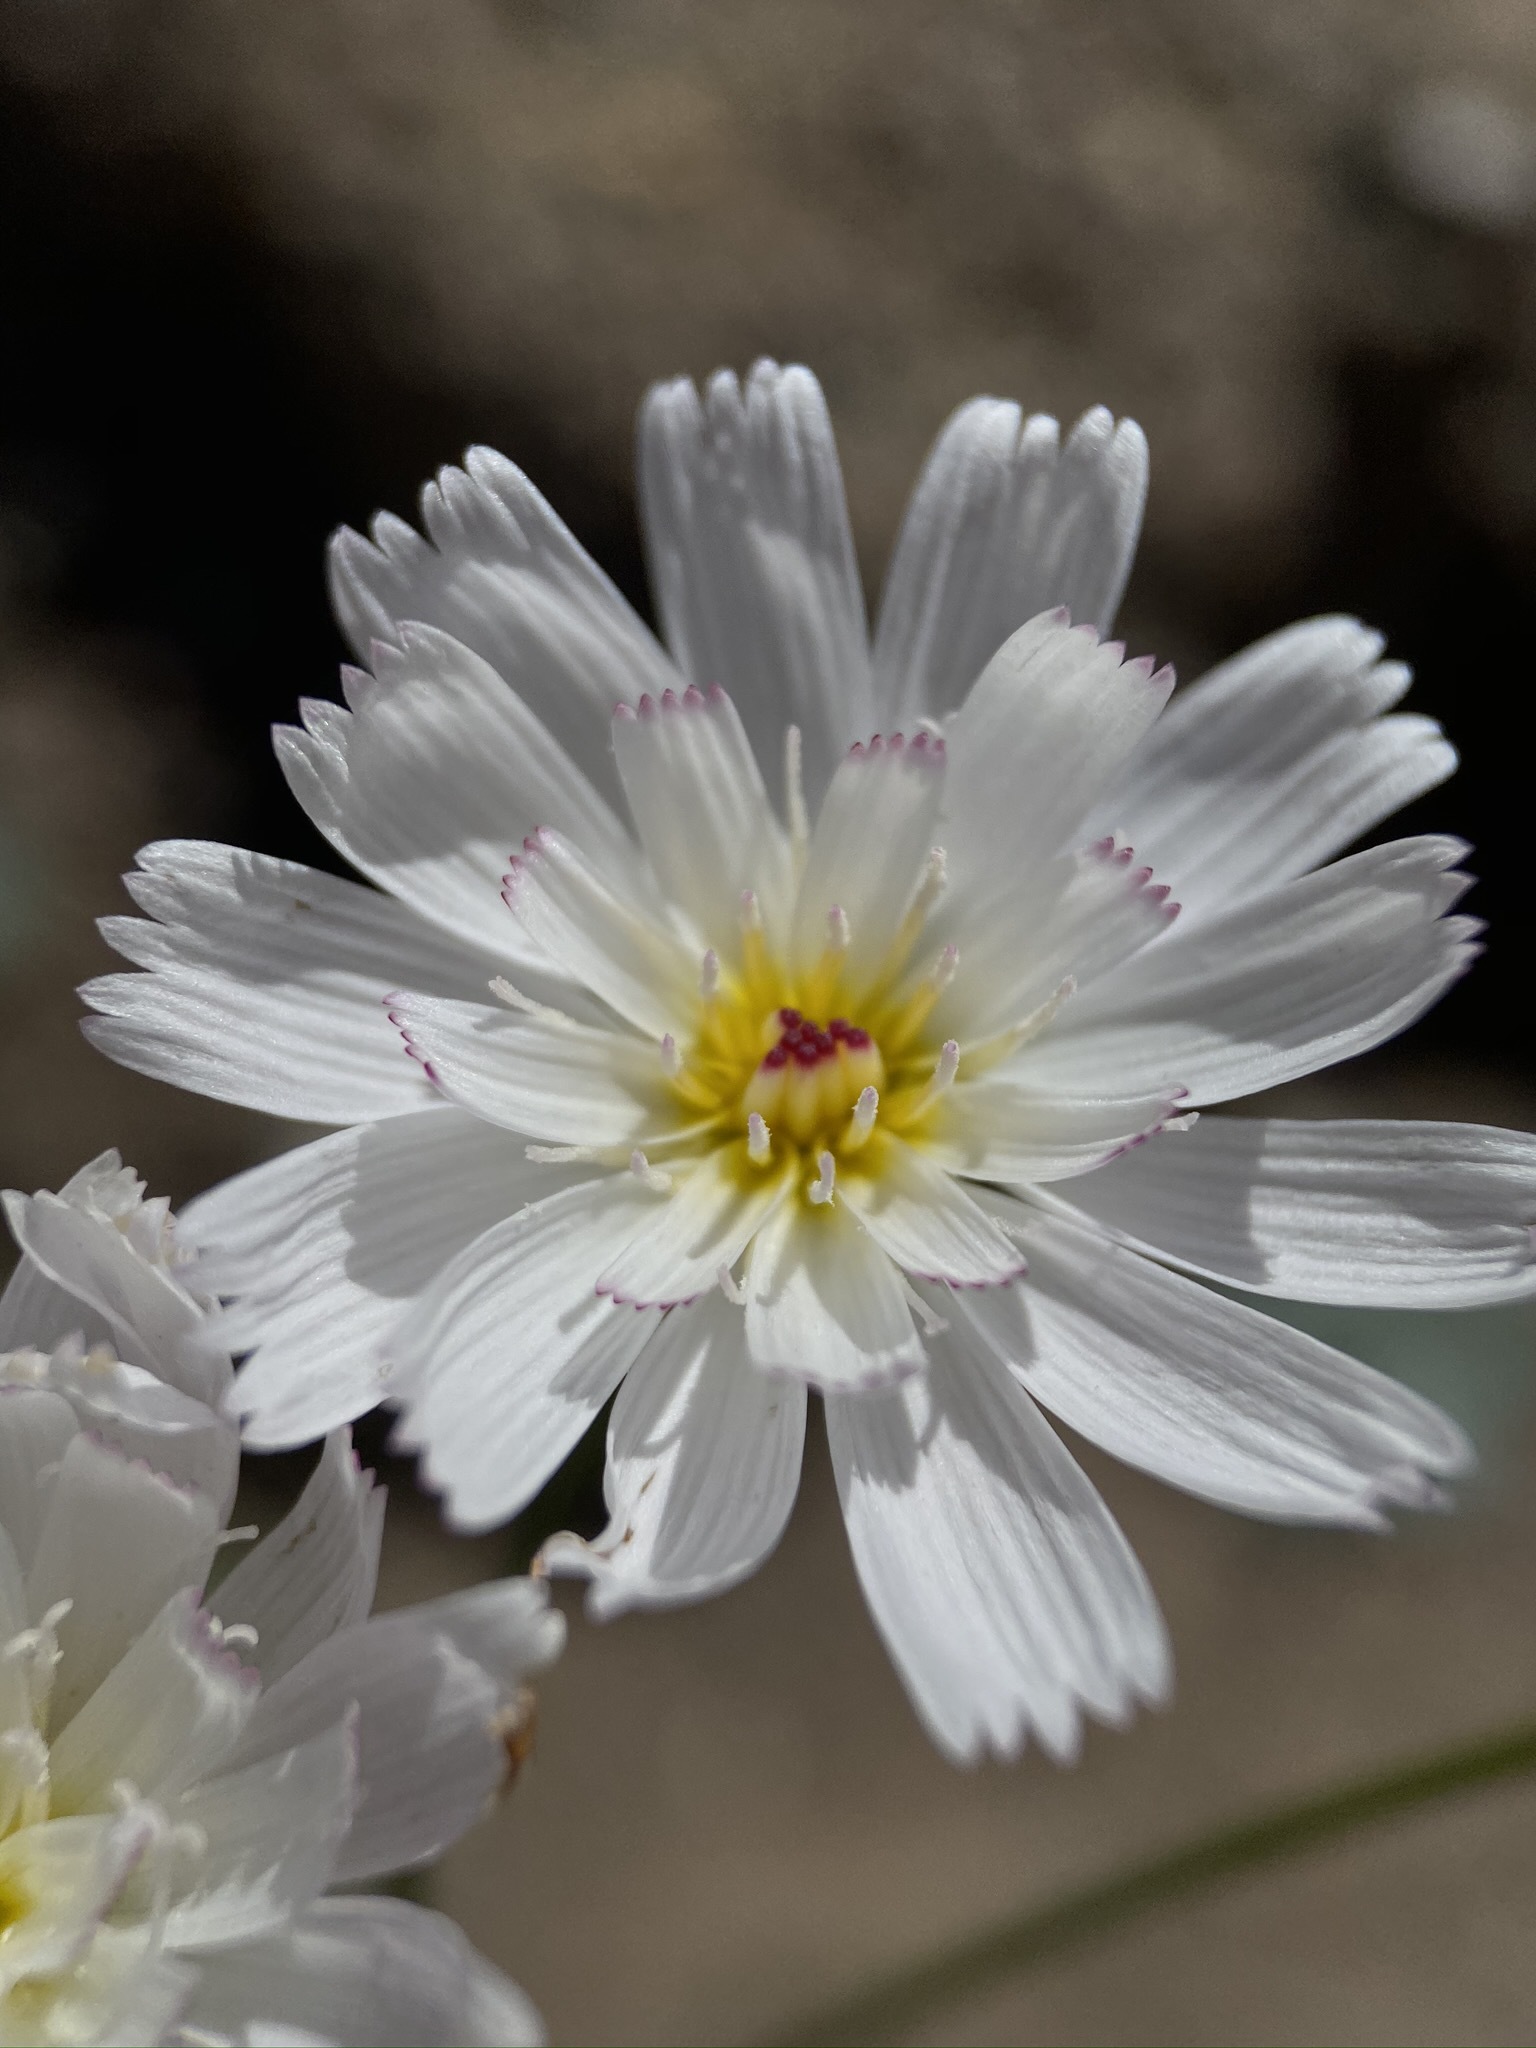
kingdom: Plantae
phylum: Tracheophyta
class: Magnoliopsida
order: Asterales
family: Asteraceae
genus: Atrichoseris
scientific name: Atrichoseris platyphylla
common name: Tobaccoweed
